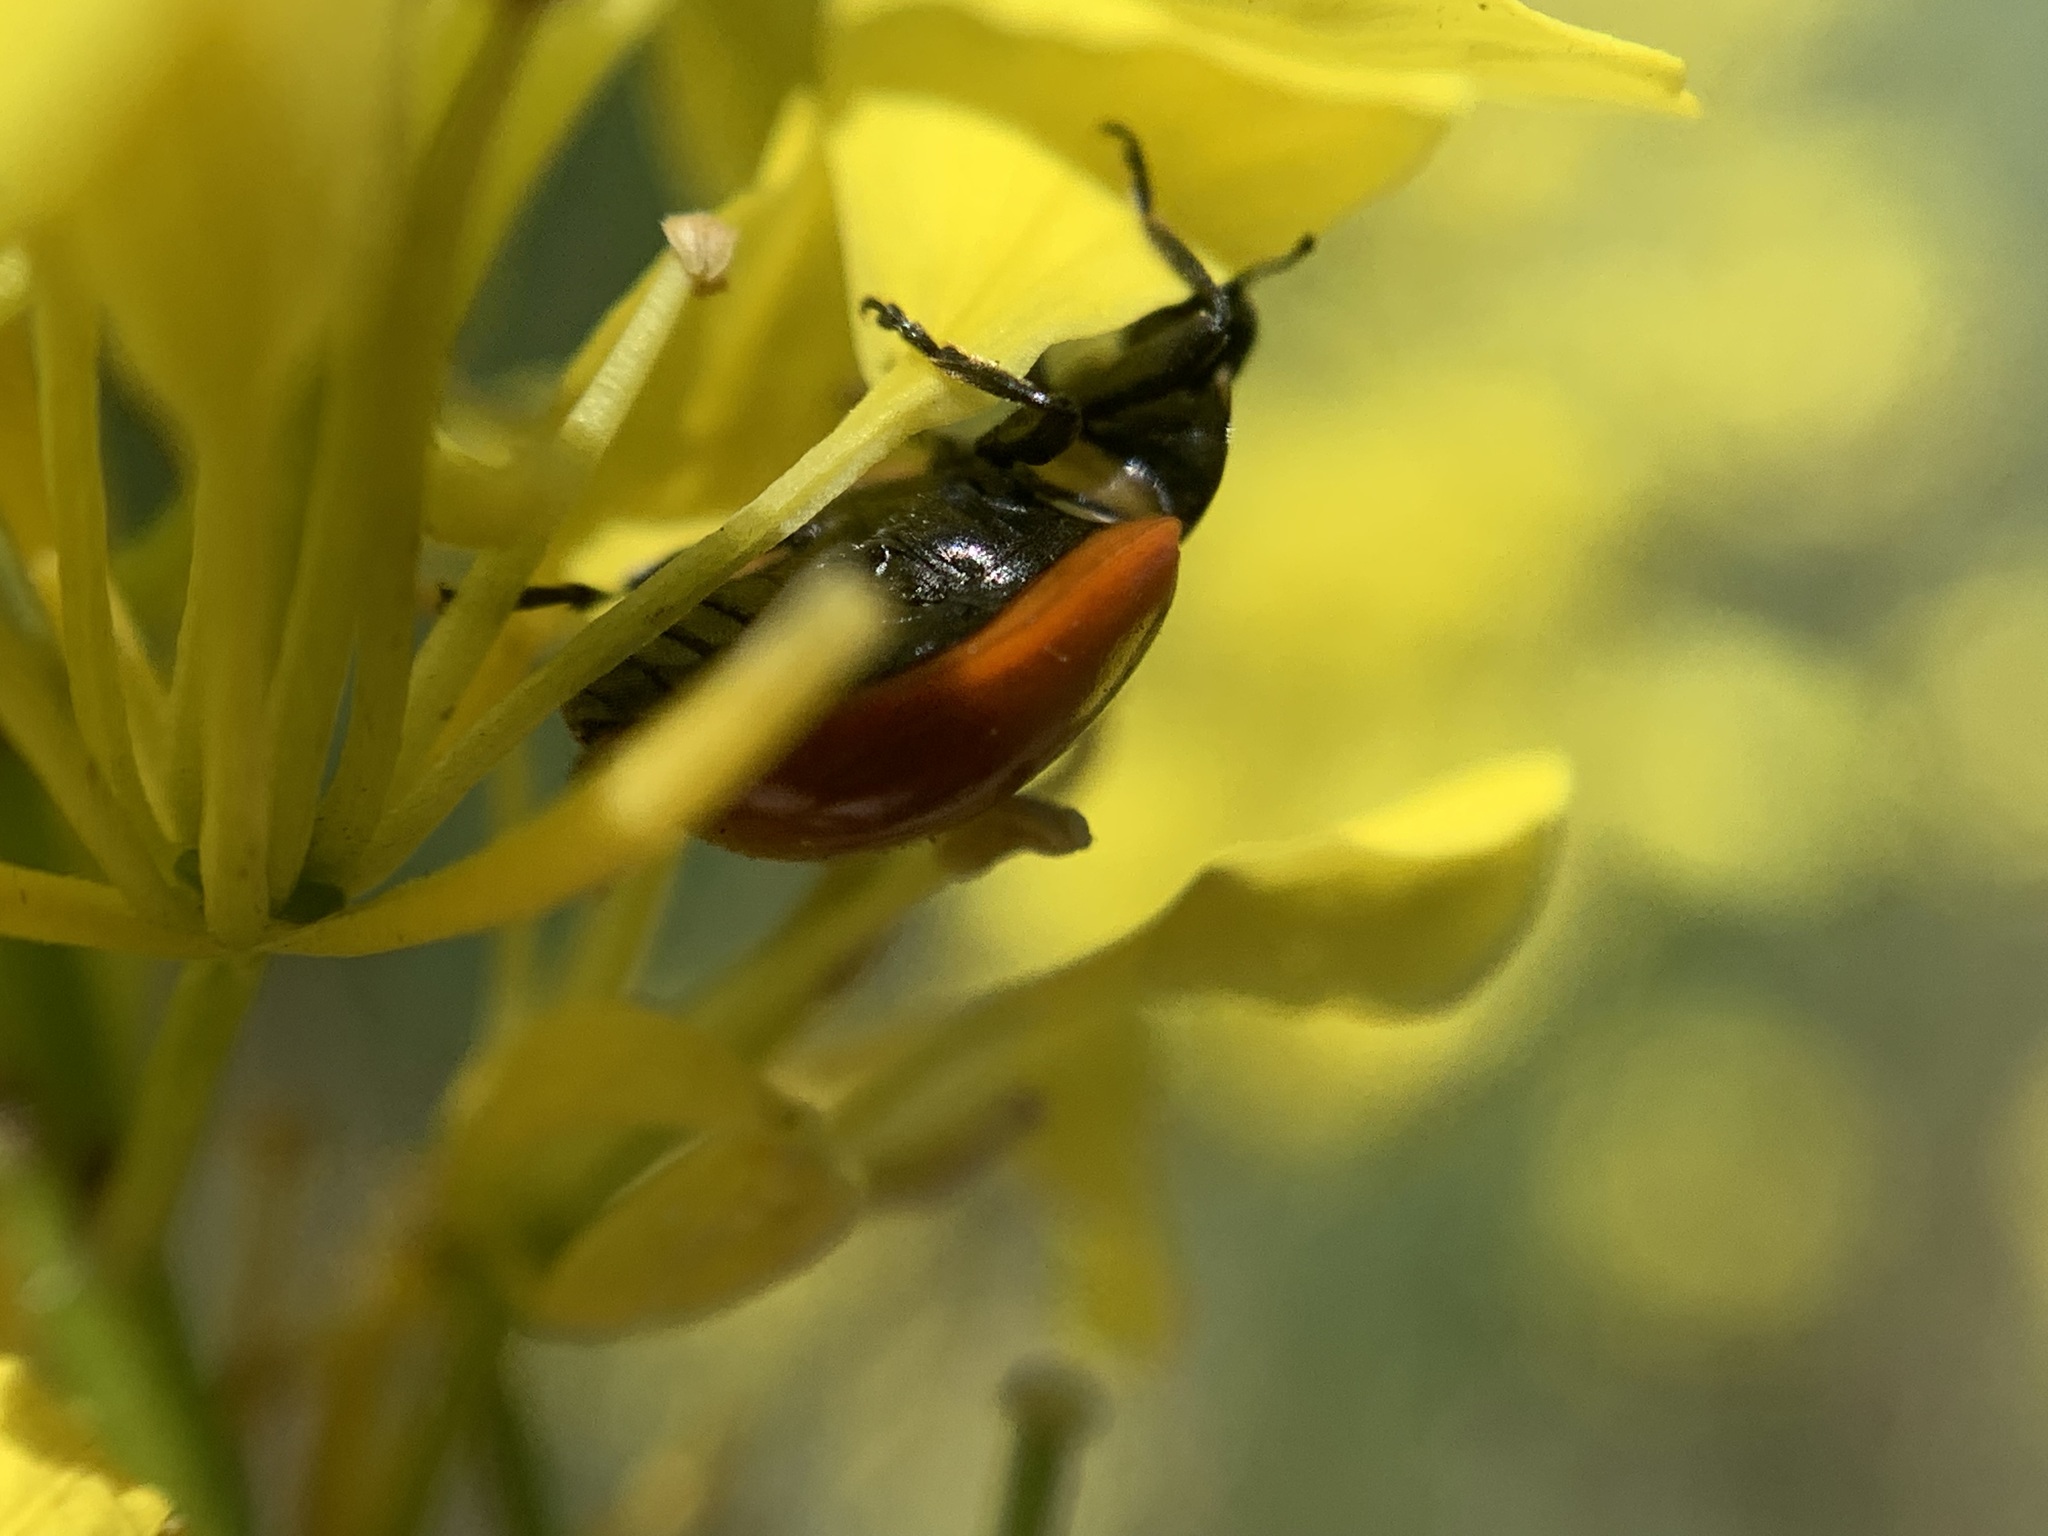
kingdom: Animalia
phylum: Arthropoda
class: Insecta
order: Coleoptera
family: Coccinellidae
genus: Coccinella
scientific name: Coccinella californica
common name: Lady beetle
